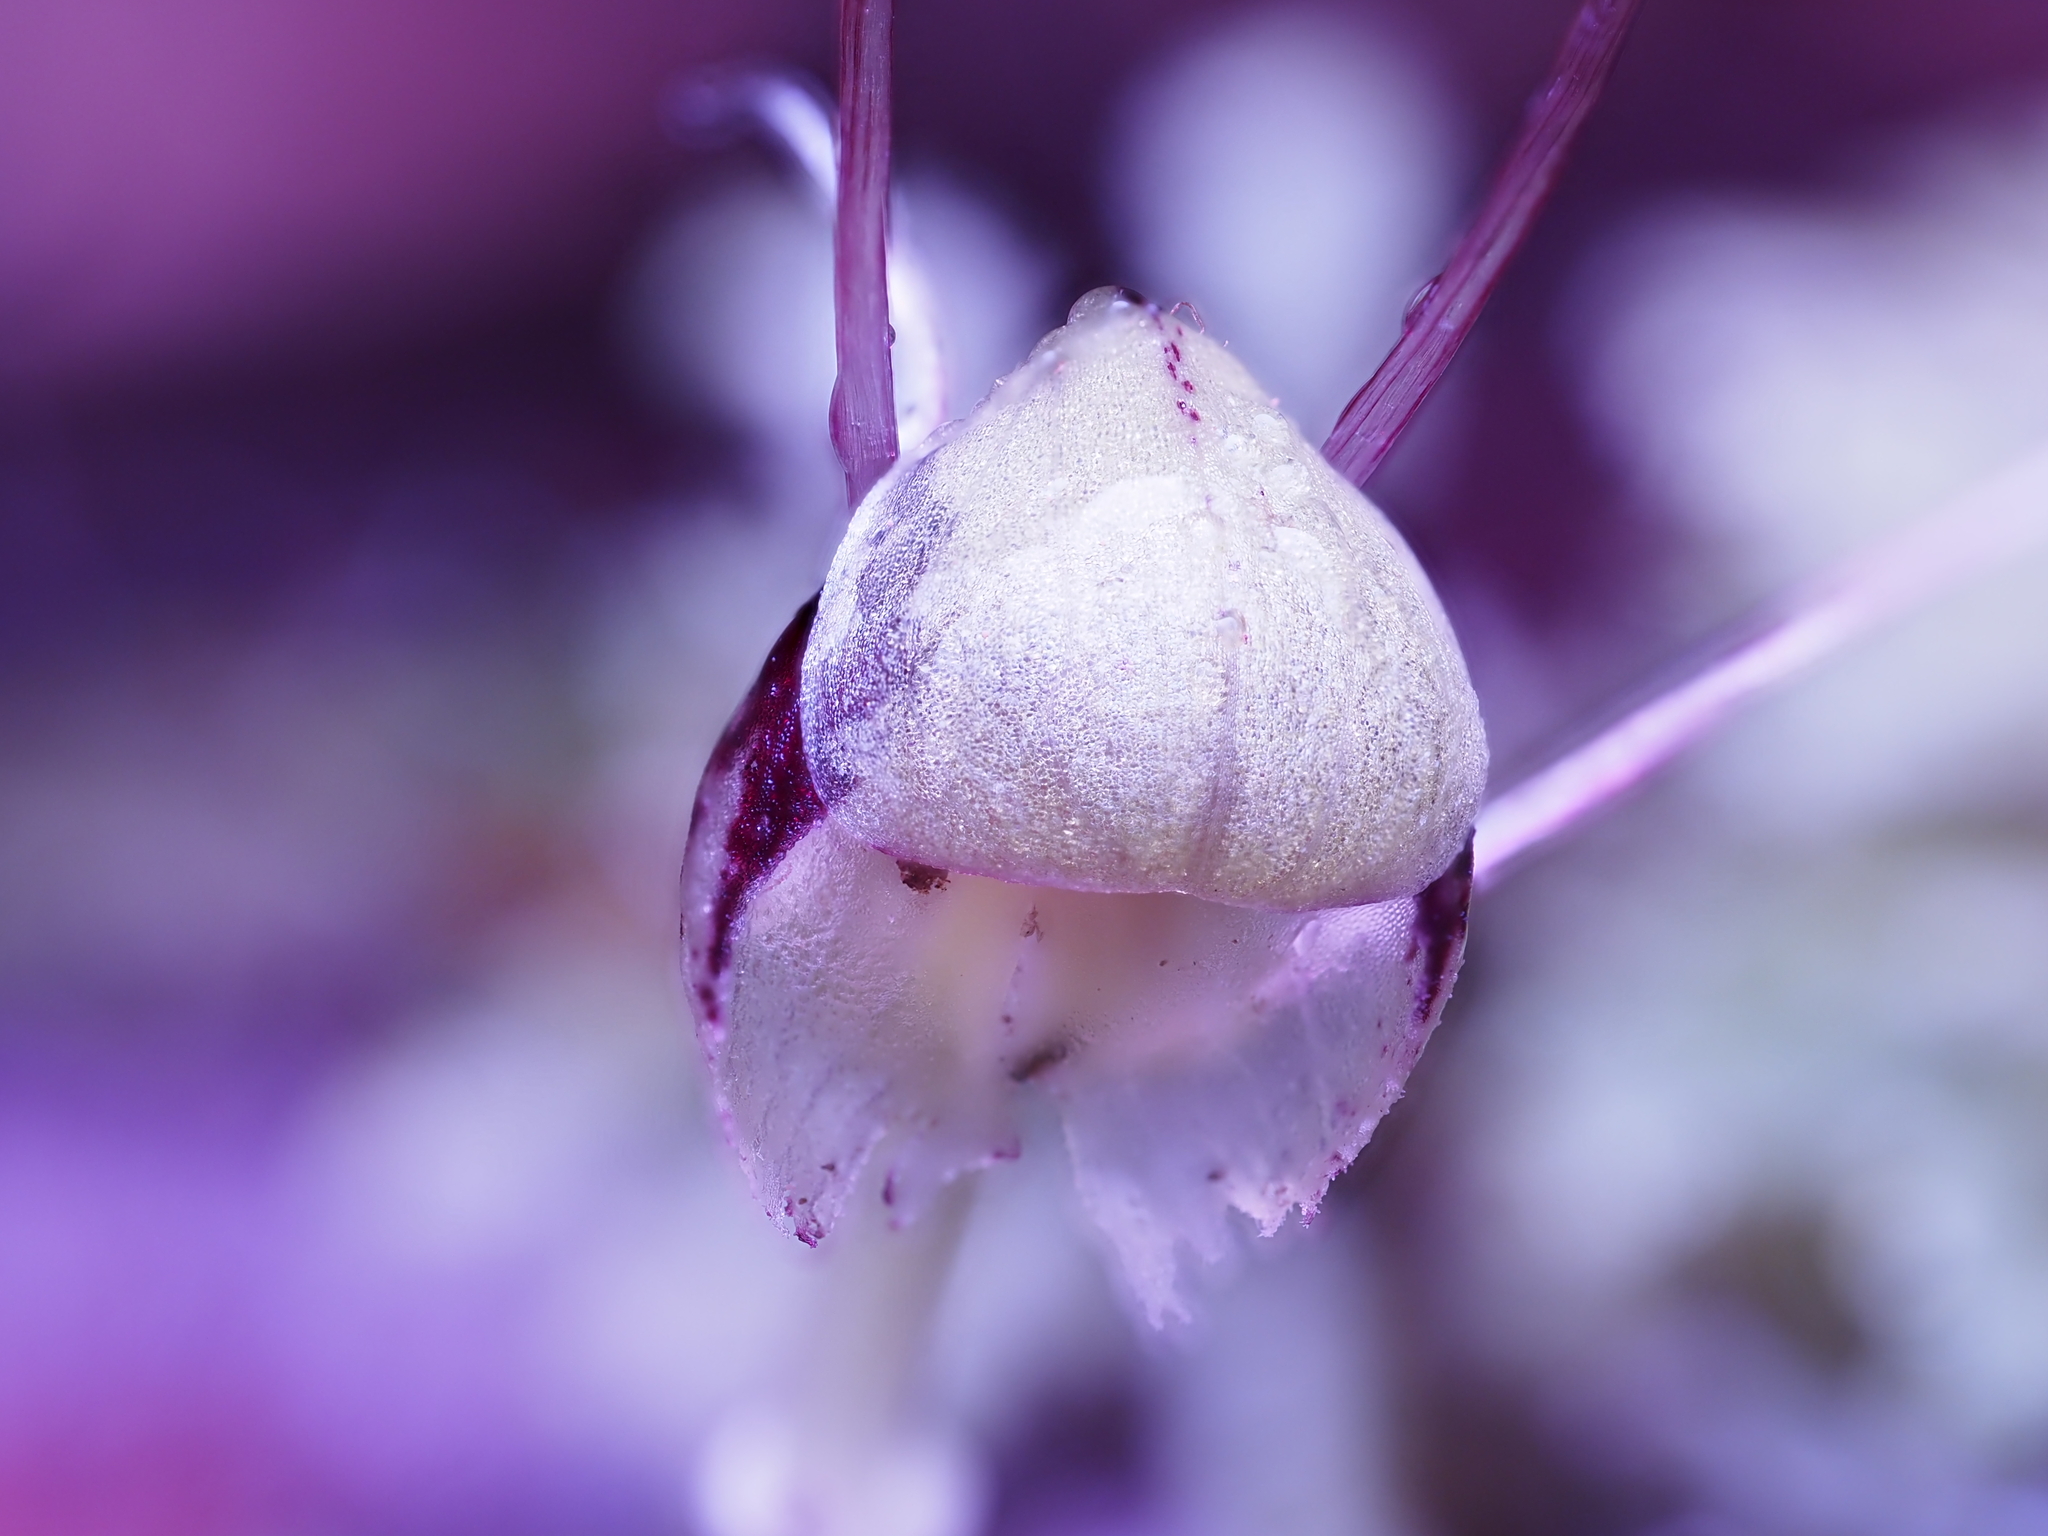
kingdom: Plantae
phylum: Tracheophyta
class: Liliopsida
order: Asparagales
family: Orchidaceae
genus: Corybas
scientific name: Corybas vitreus
